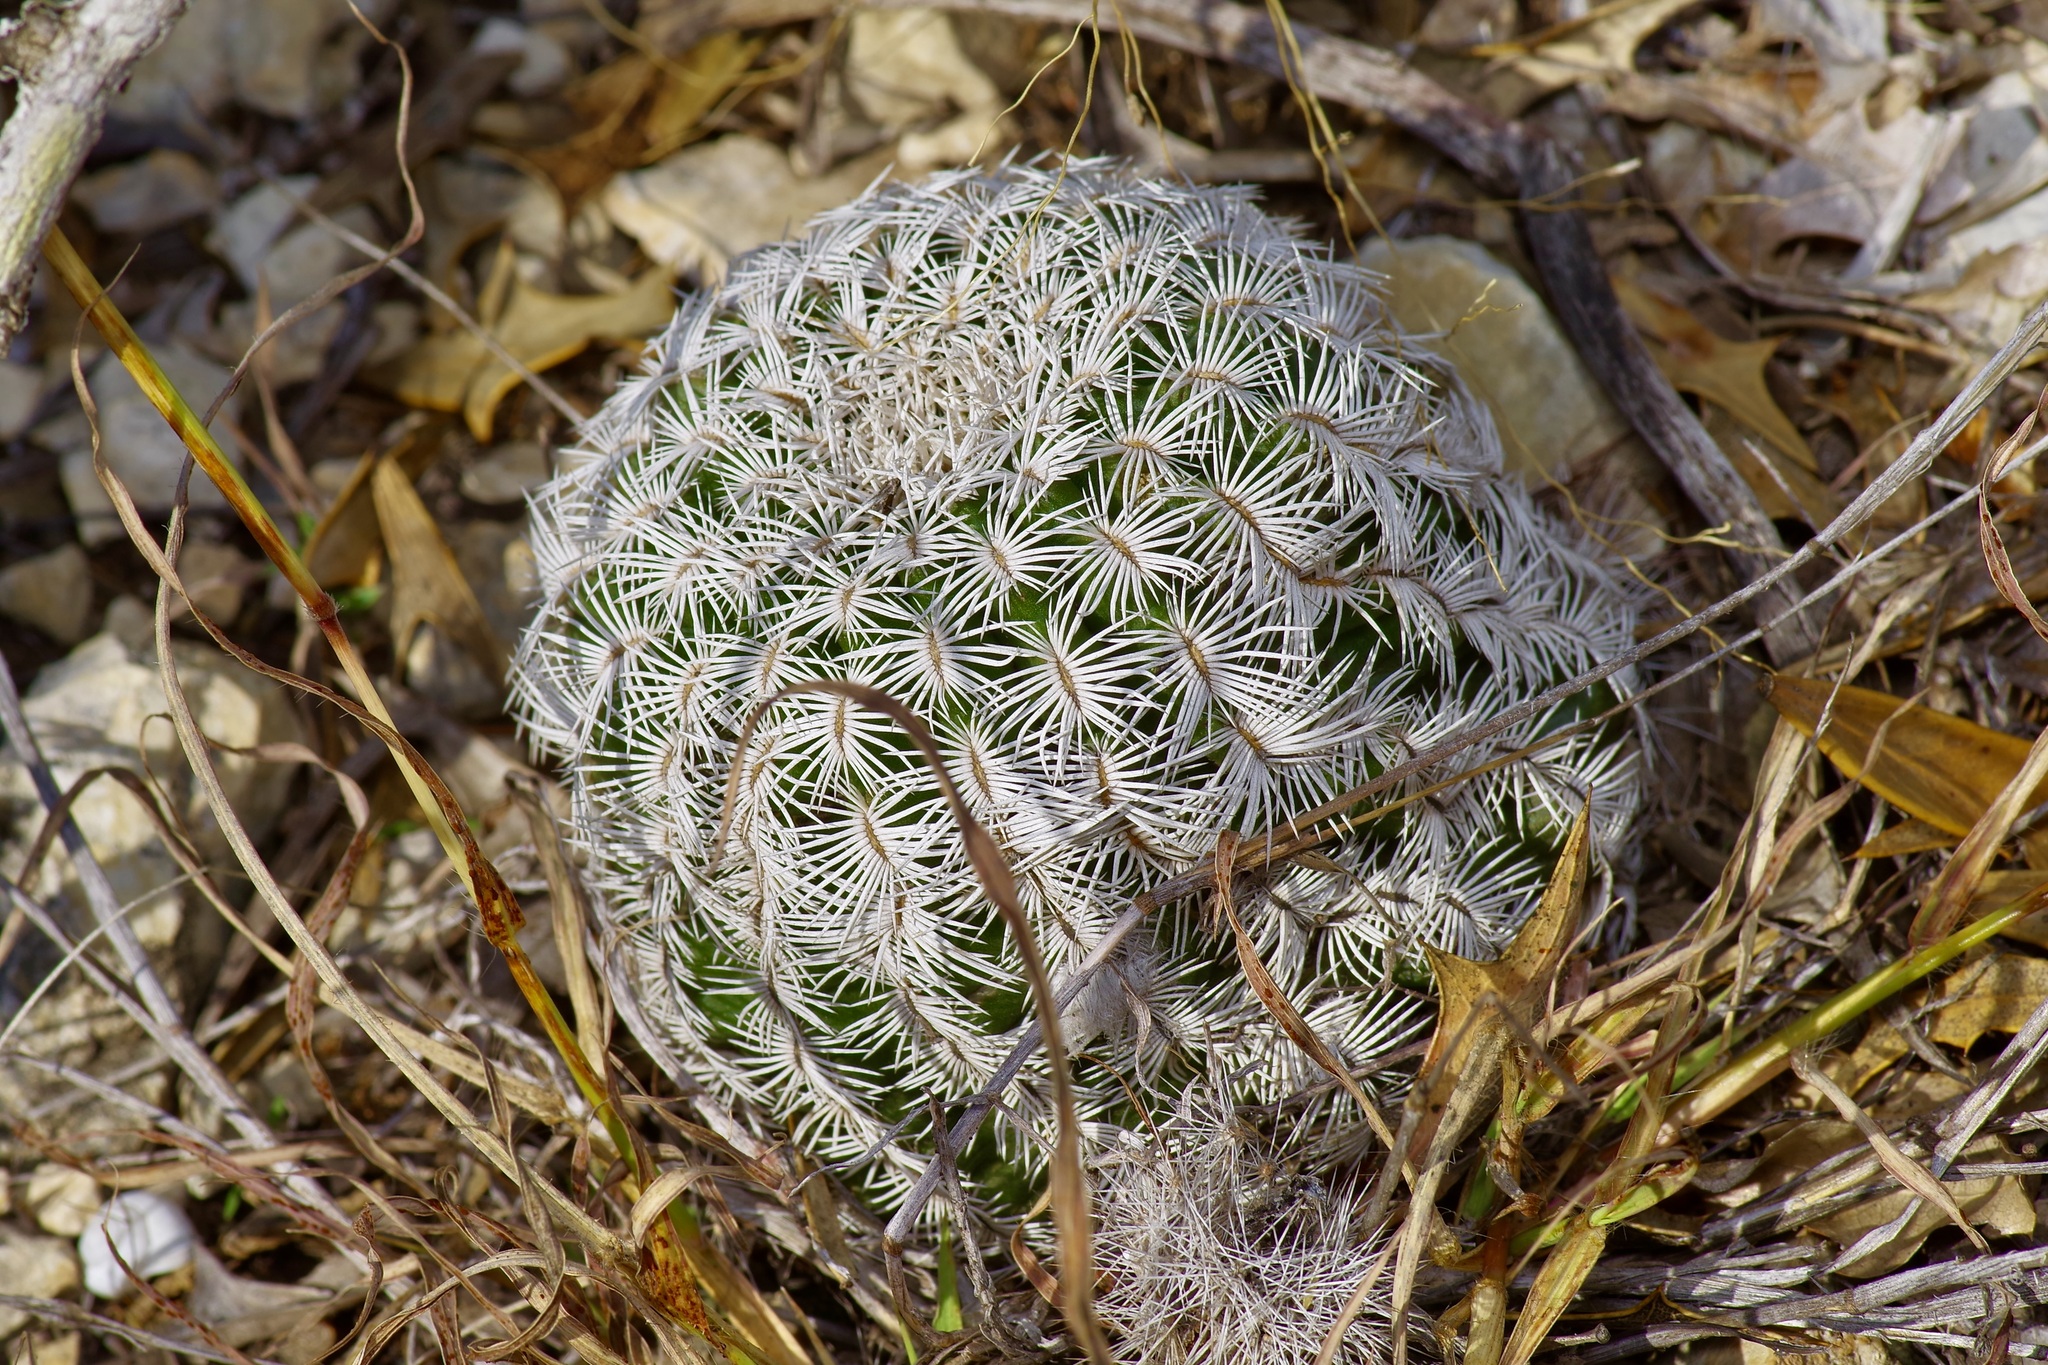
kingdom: Plantae
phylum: Tracheophyta
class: Magnoliopsida
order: Caryophyllales
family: Cactaceae
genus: Echinocereus
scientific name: Echinocereus reichenbachii
